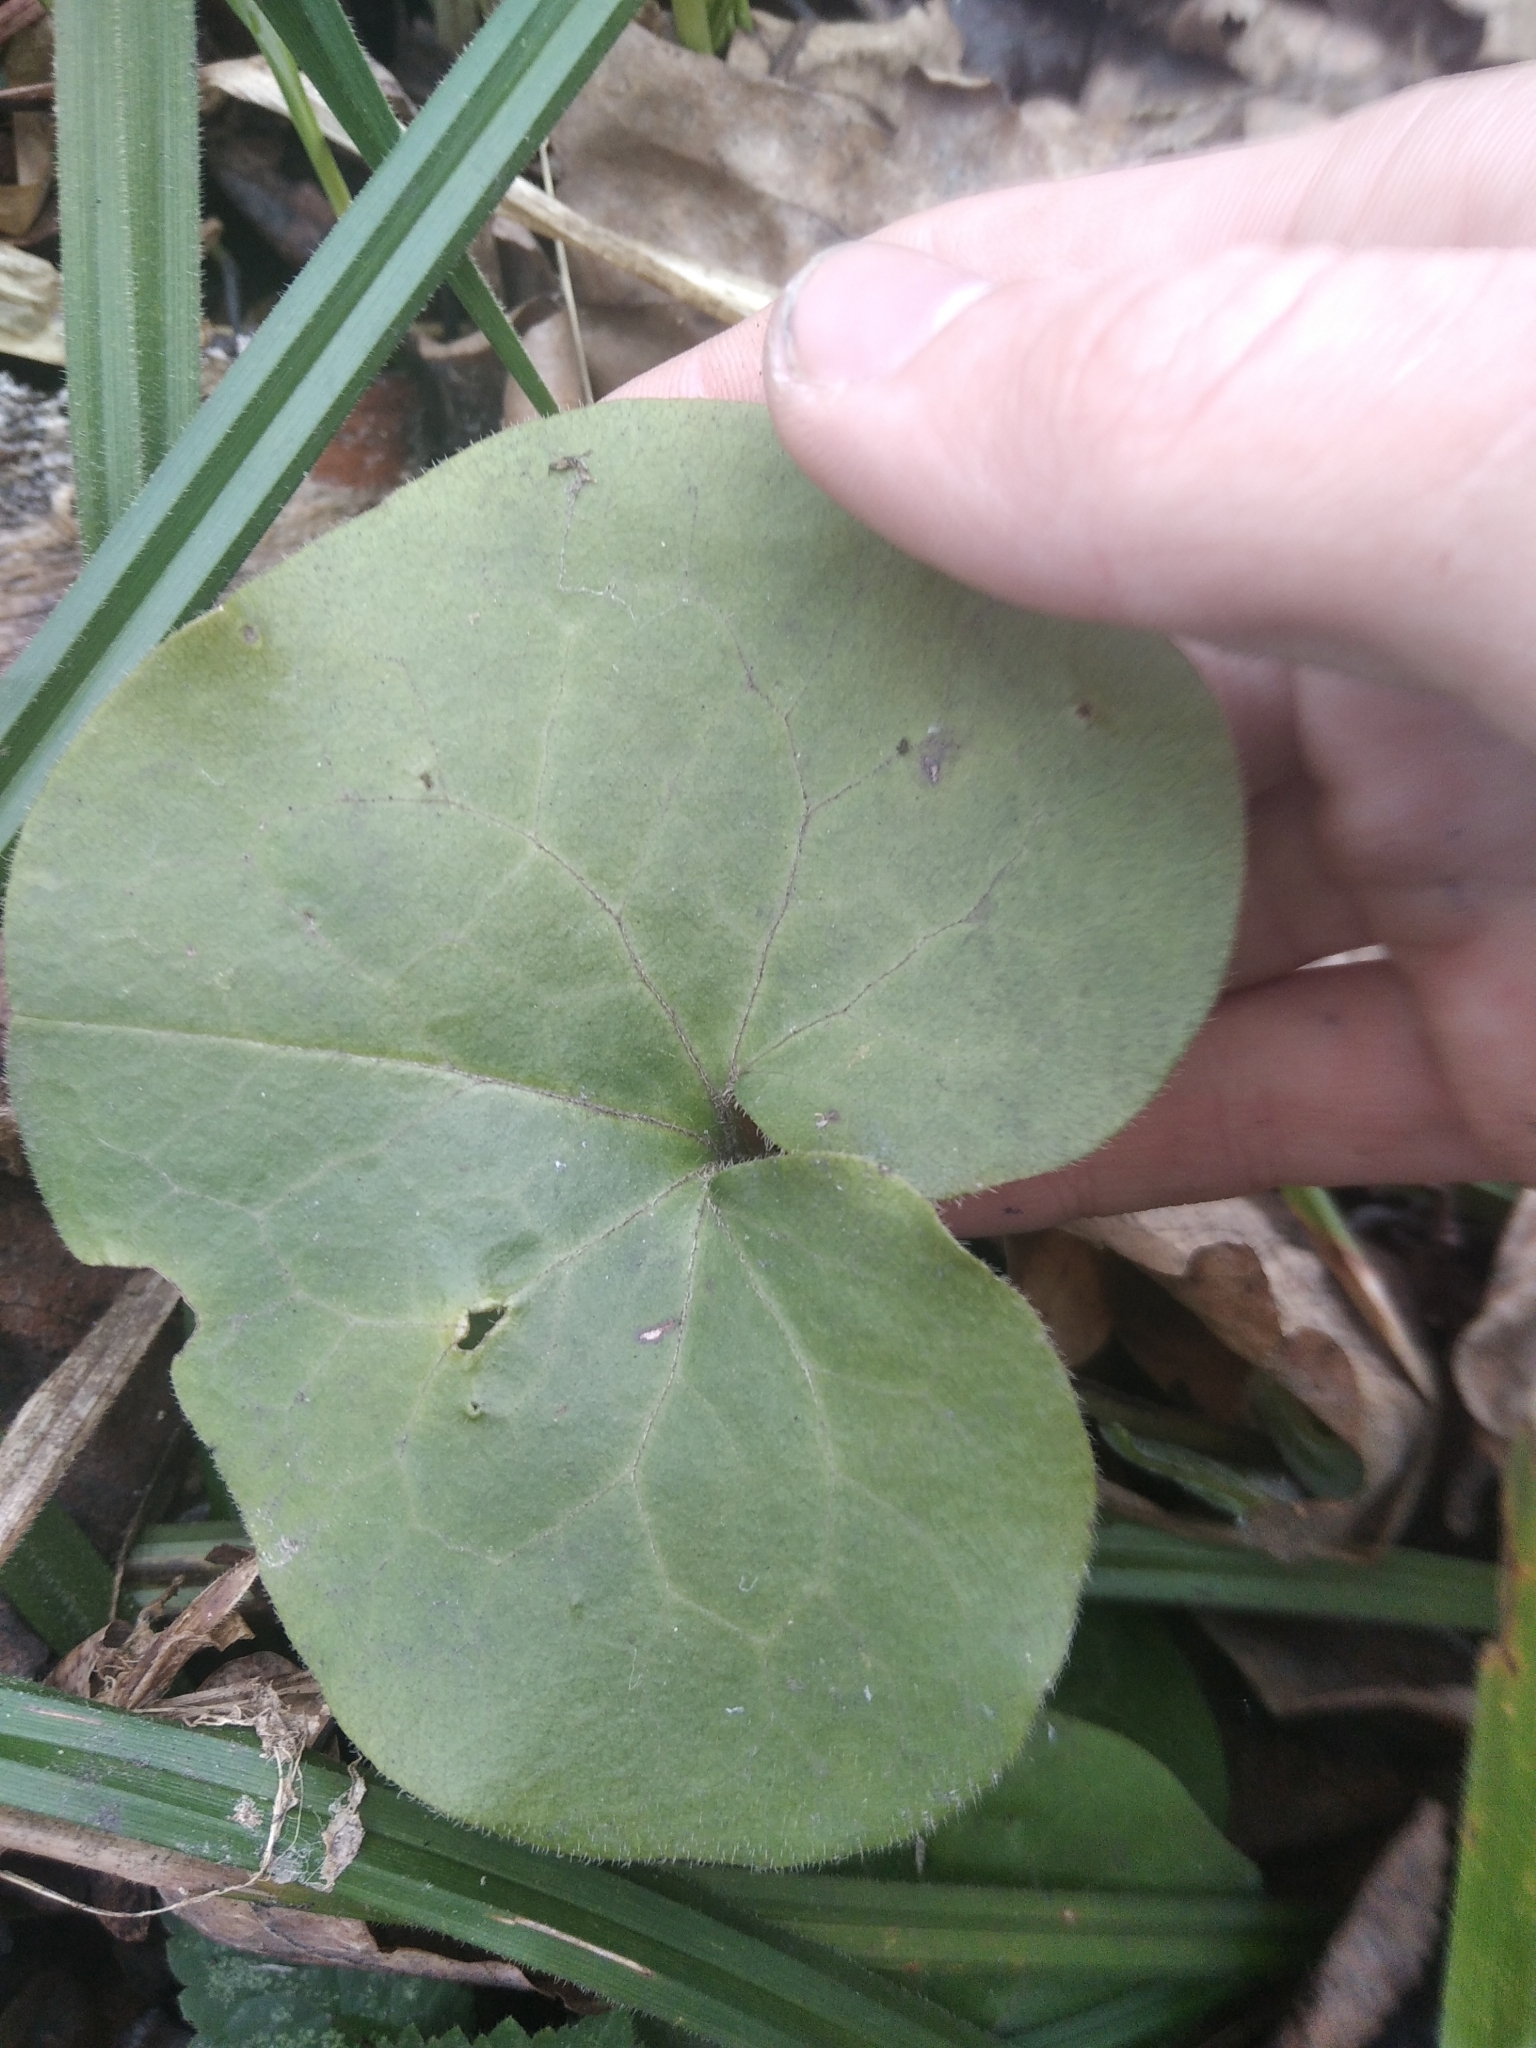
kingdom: Plantae
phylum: Tracheophyta
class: Magnoliopsida
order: Piperales
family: Aristolochiaceae
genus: Asarum
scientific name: Asarum europaeum
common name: Asarabacca
